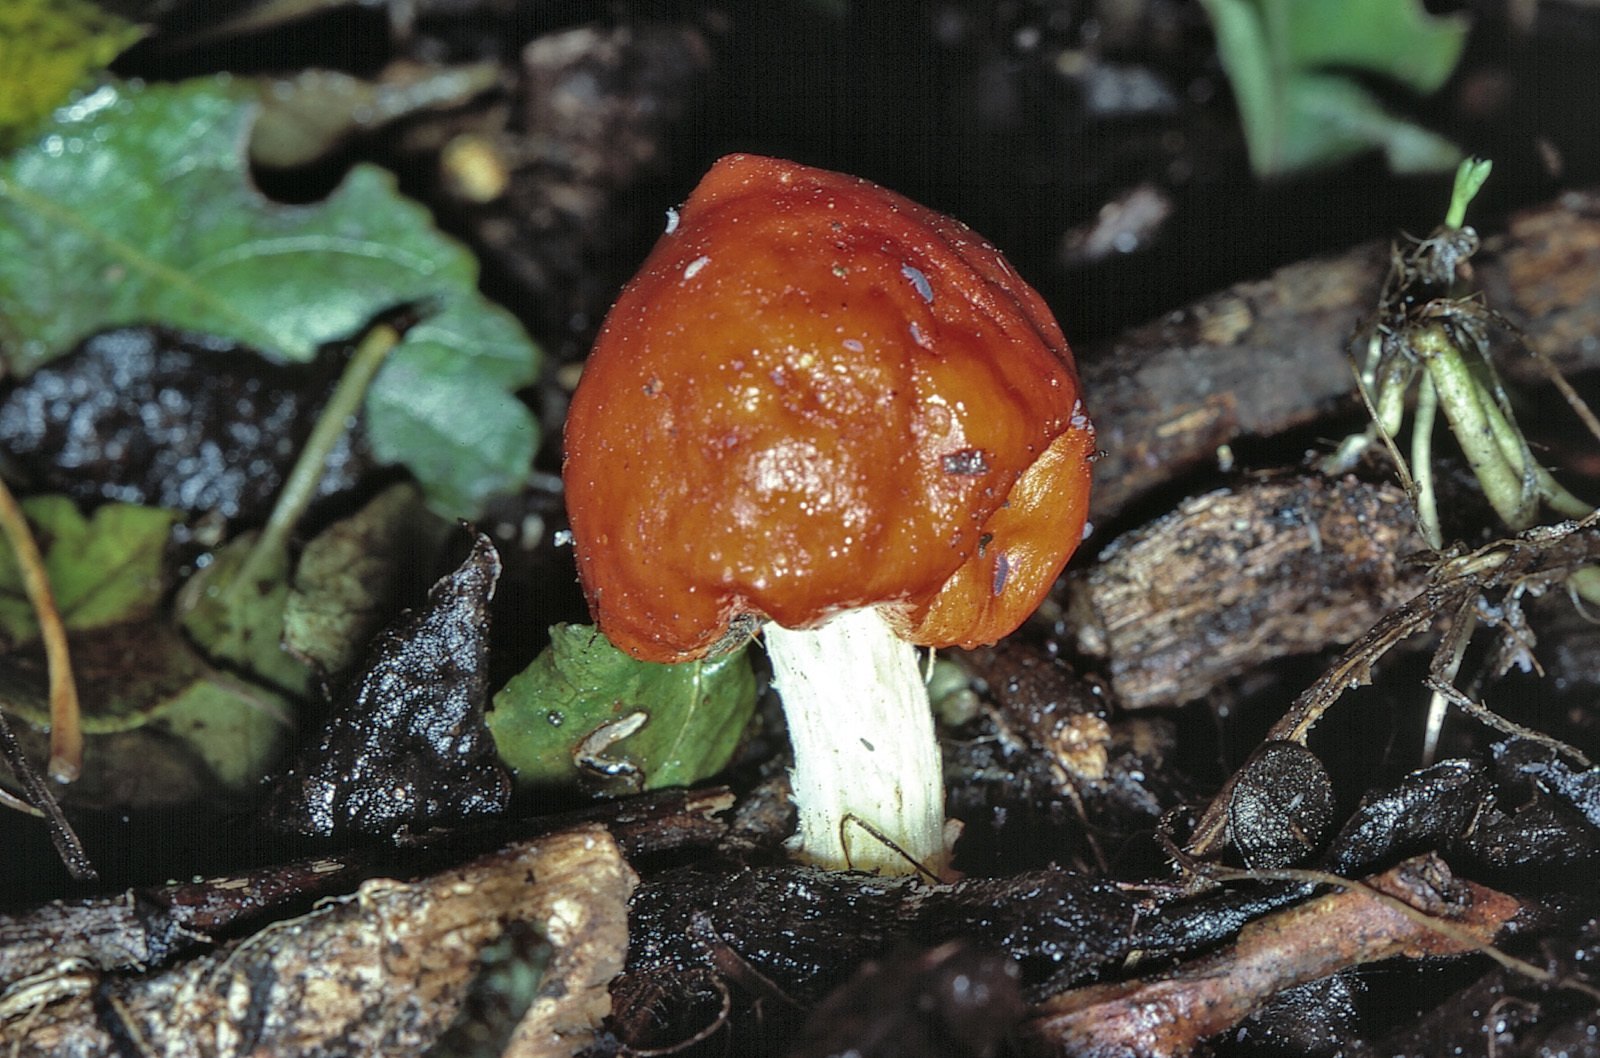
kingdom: Fungi
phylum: Basidiomycota
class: Agaricomycetes
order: Agaricales
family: Strophariaceae
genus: Leratiomyces
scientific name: Leratiomyces erythrocephalus
